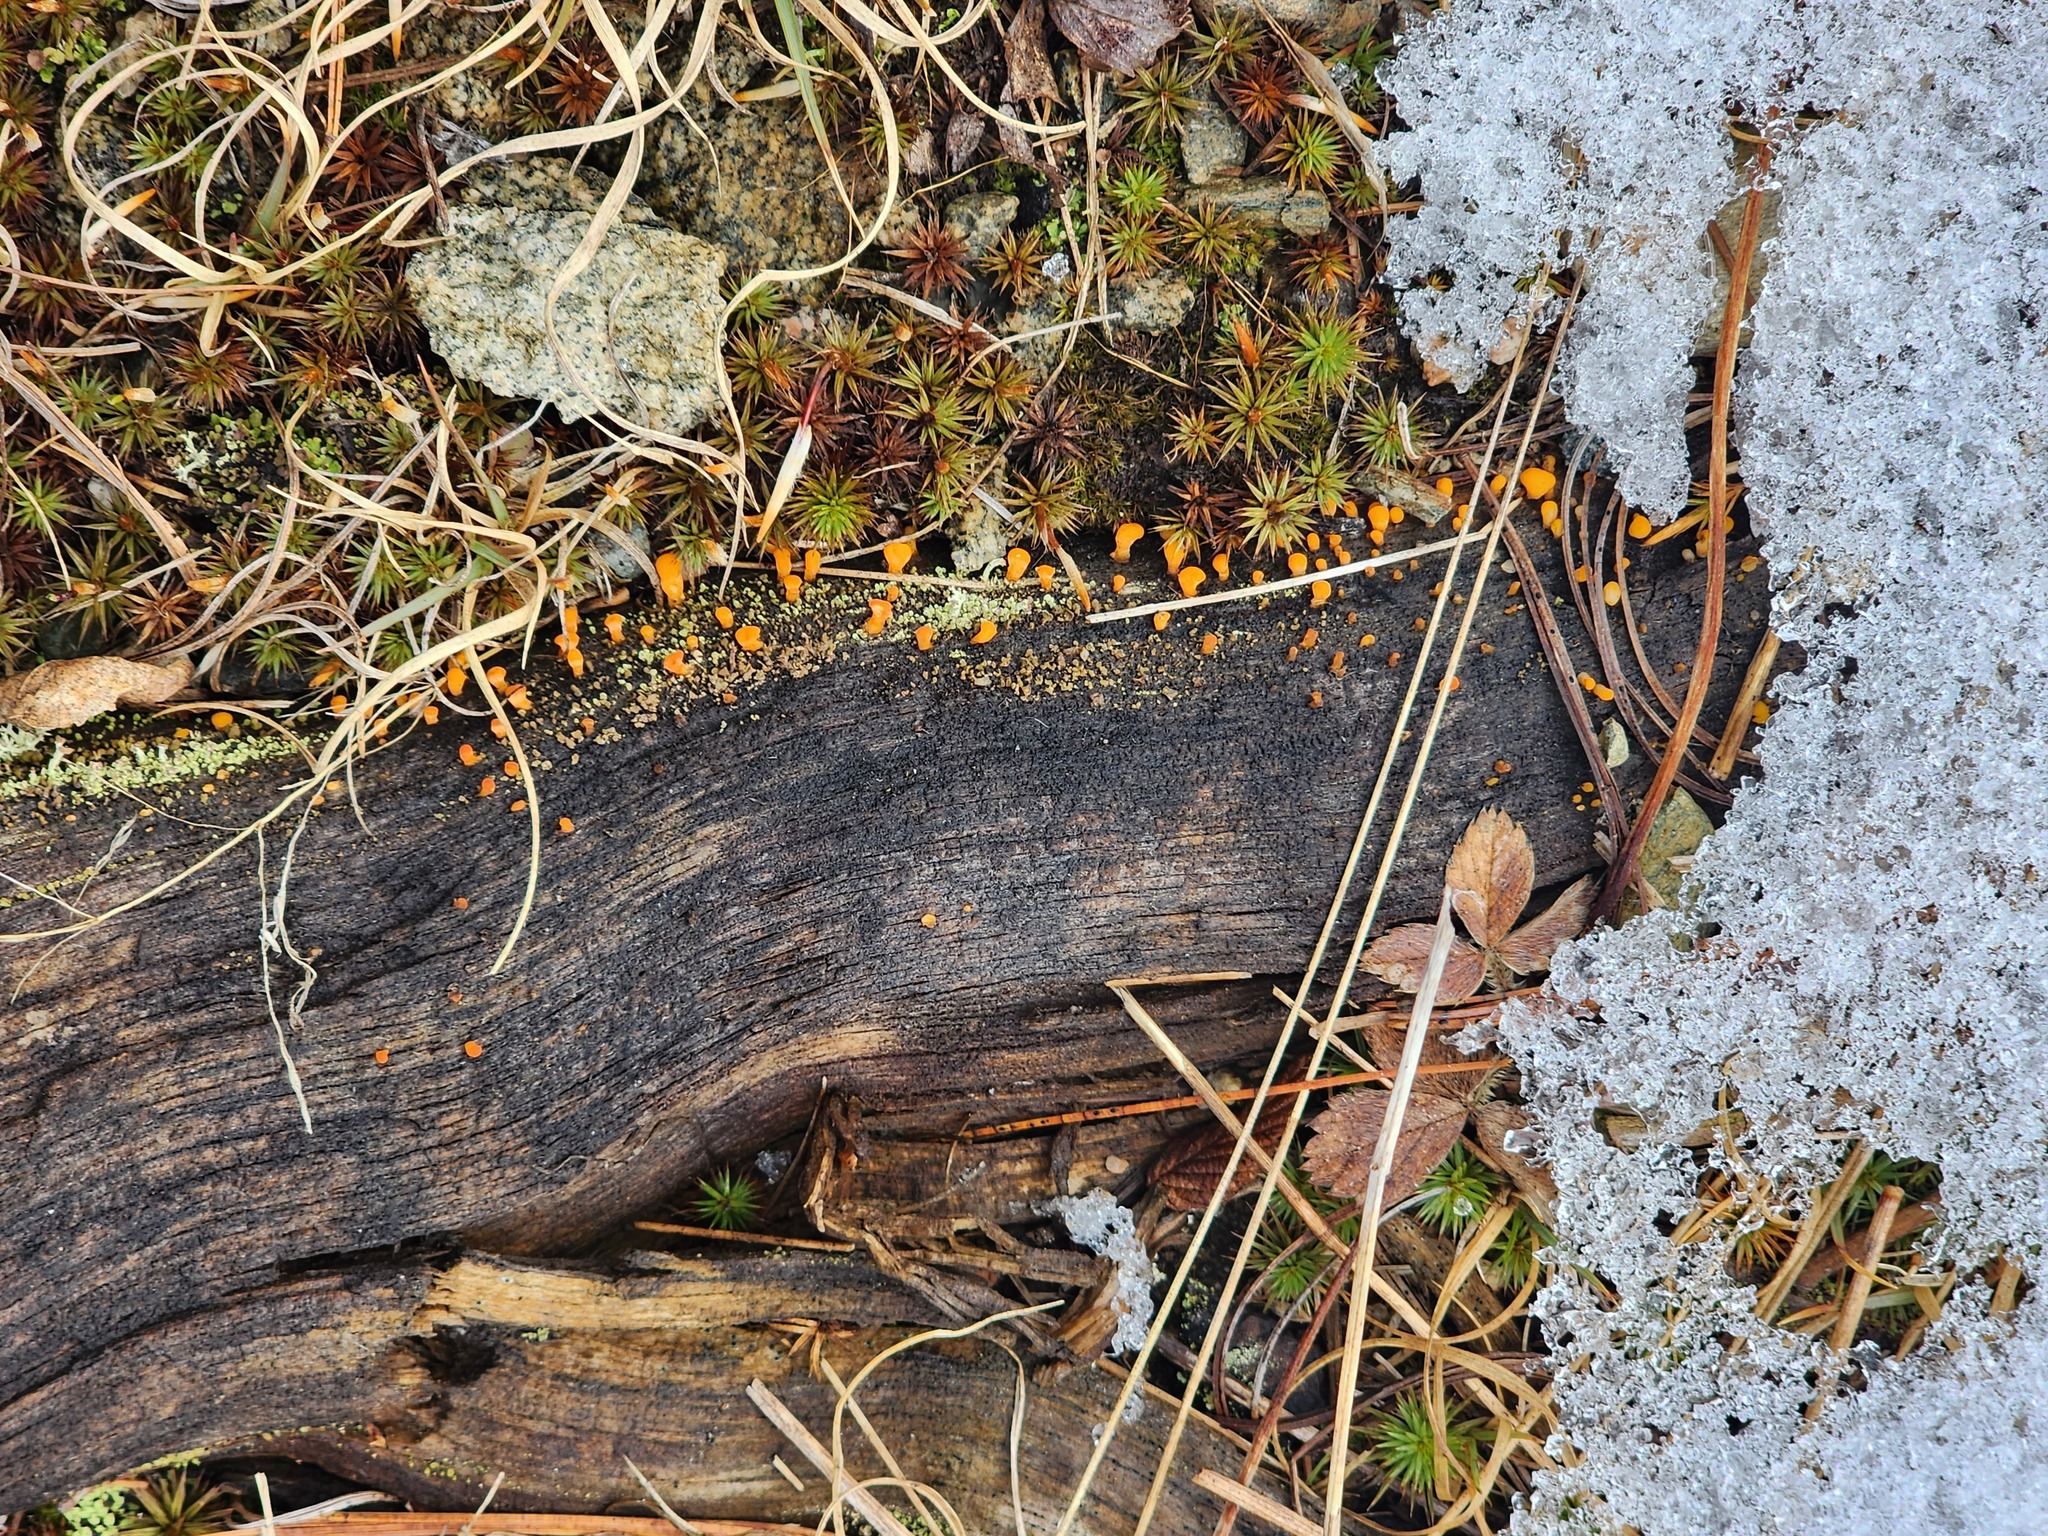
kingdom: Fungi
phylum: Basidiomycota
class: Dacrymycetes
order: Dacrymycetales
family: Dacrymycetaceae
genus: Dacrymyces
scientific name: Dacrymyces chrysospermus
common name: Orange jelly spot
